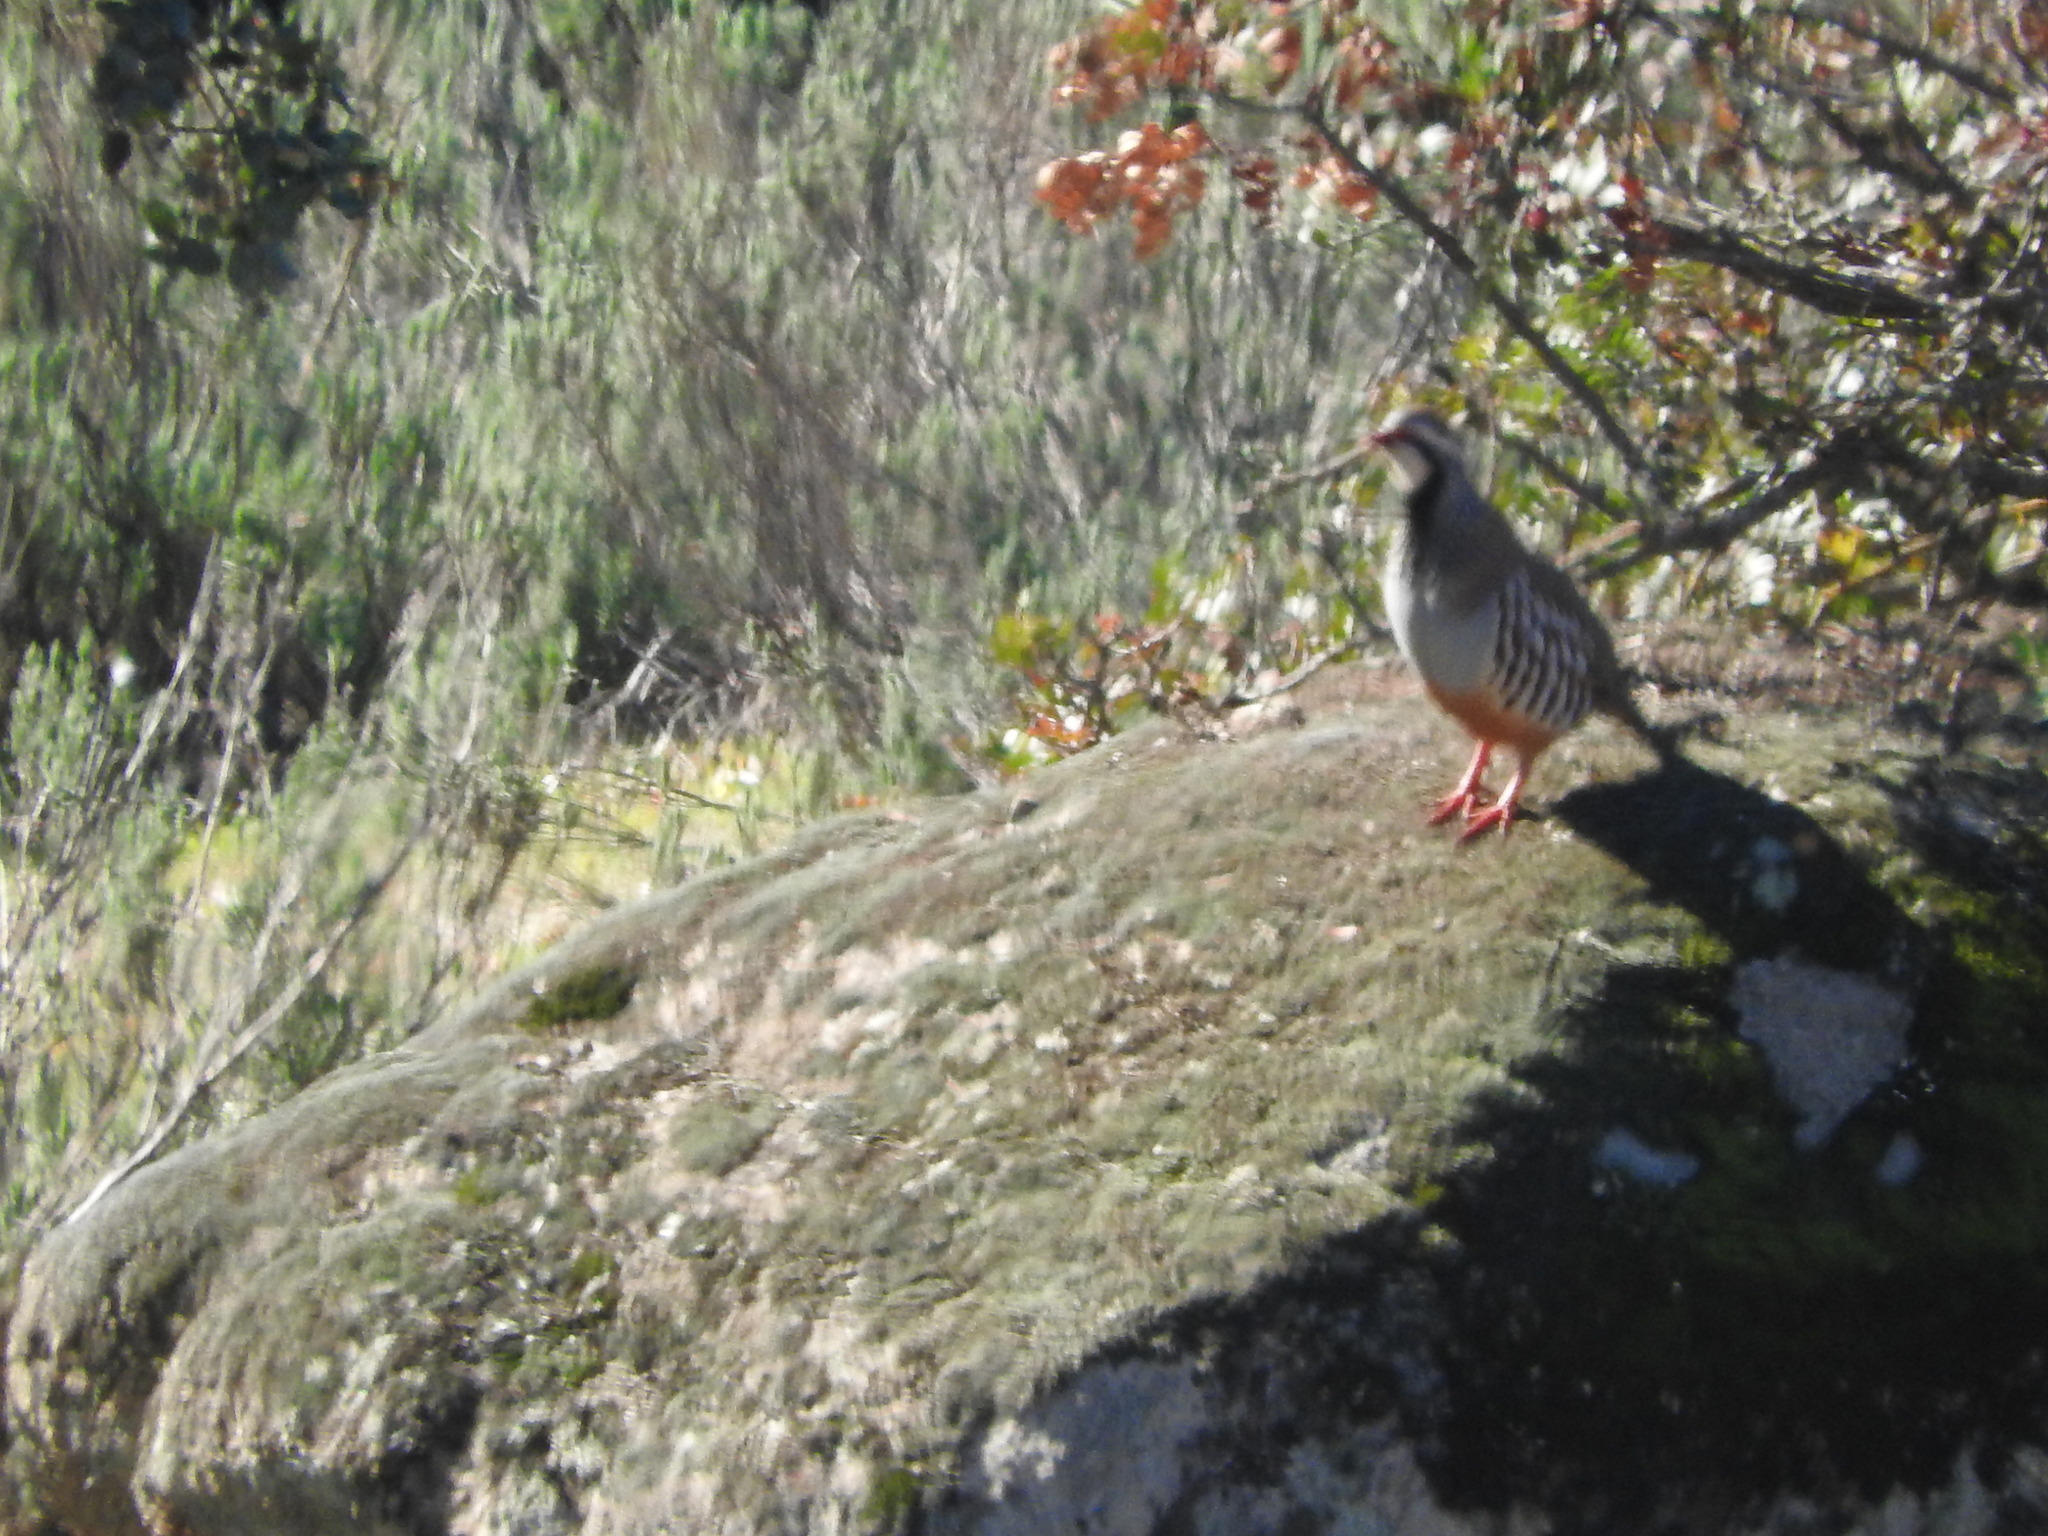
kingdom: Animalia
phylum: Chordata
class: Aves
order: Galliformes
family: Phasianidae
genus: Alectoris
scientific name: Alectoris rufa
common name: Red-legged partridge
